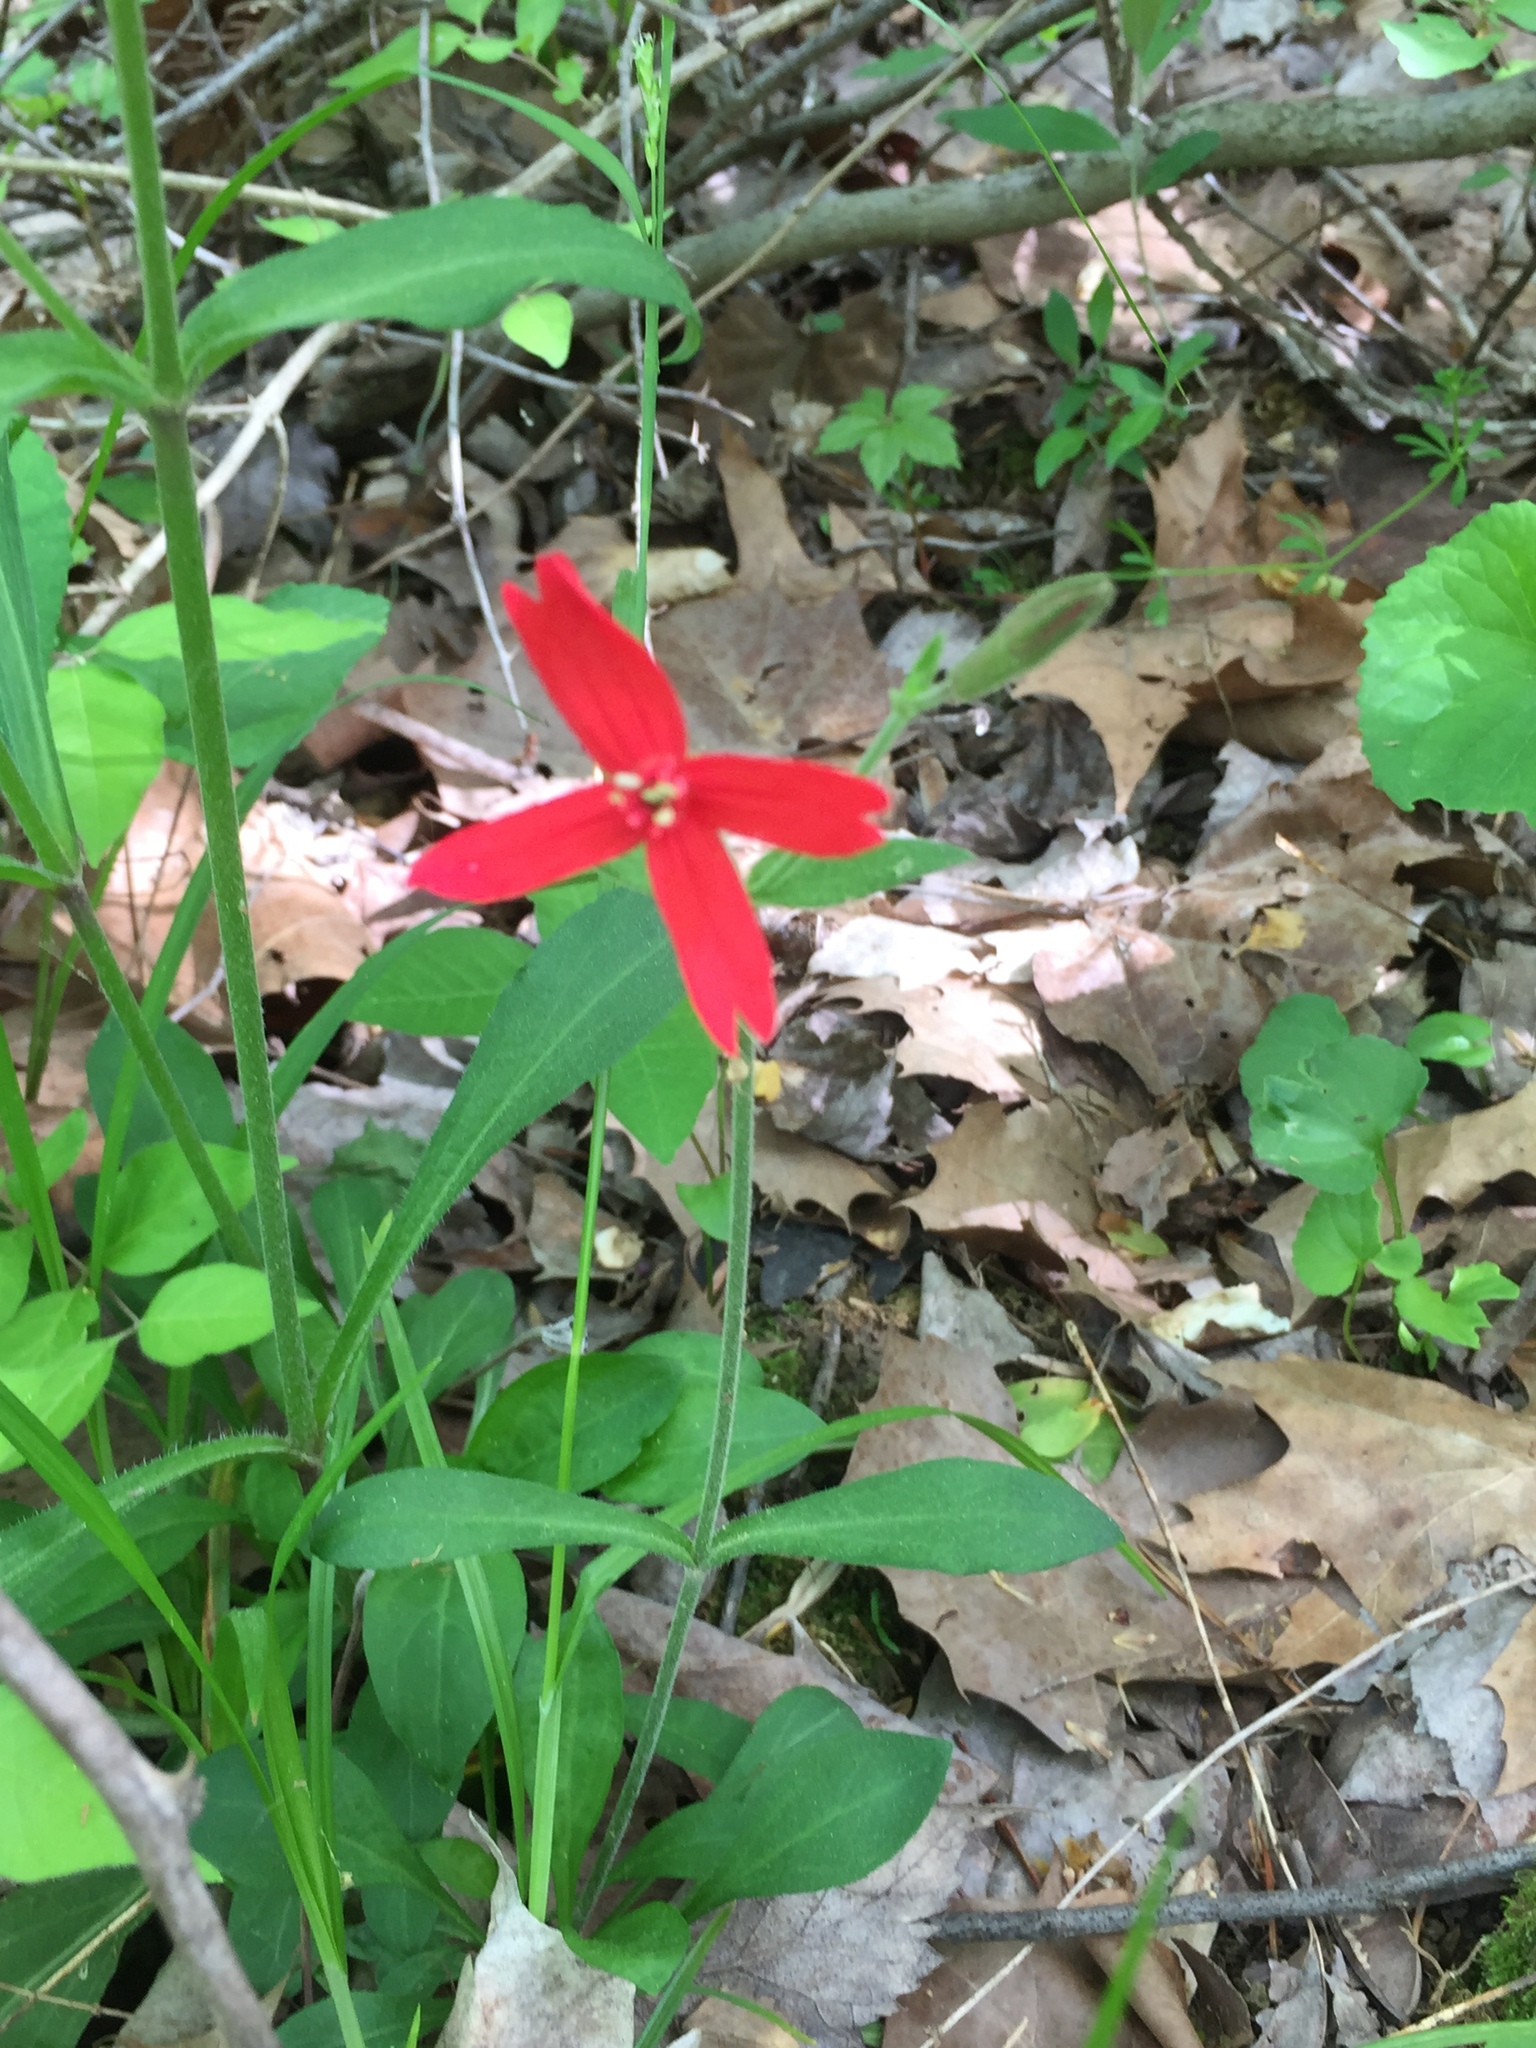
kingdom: Plantae
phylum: Tracheophyta
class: Magnoliopsida
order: Caryophyllales
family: Caryophyllaceae
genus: Silene
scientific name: Silene virginica
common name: Fire-pink
